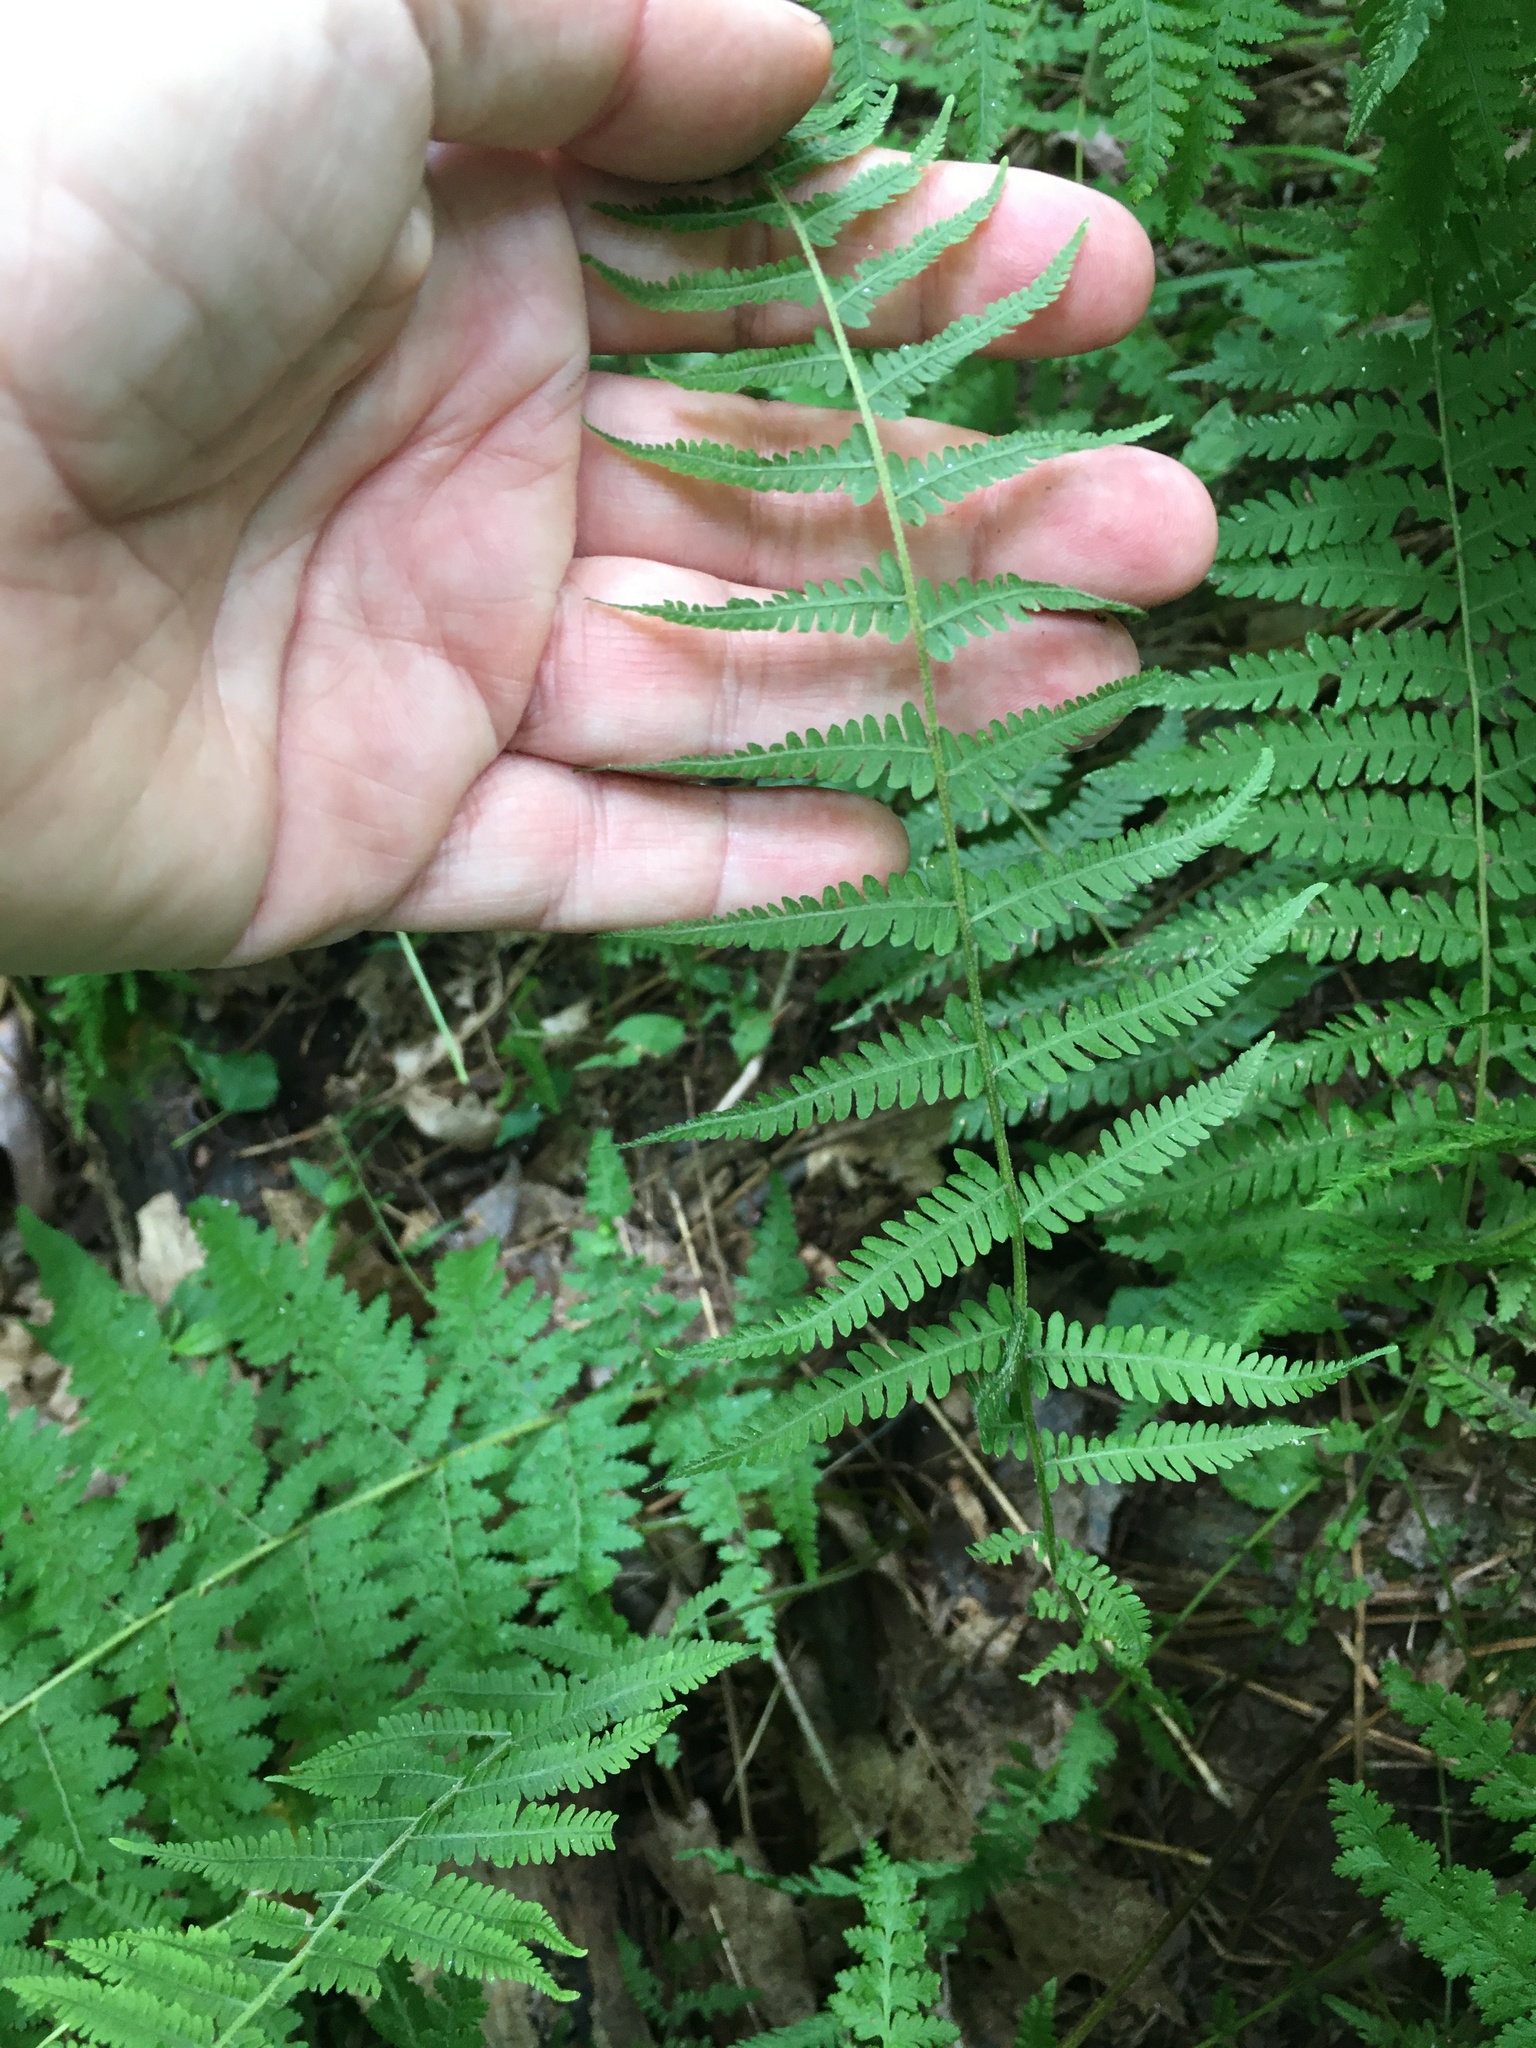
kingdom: Plantae
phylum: Tracheophyta
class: Polypodiopsida
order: Polypodiales
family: Thelypteridaceae
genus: Amauropelta
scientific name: Amauropelta noveboracensis
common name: New york fern
